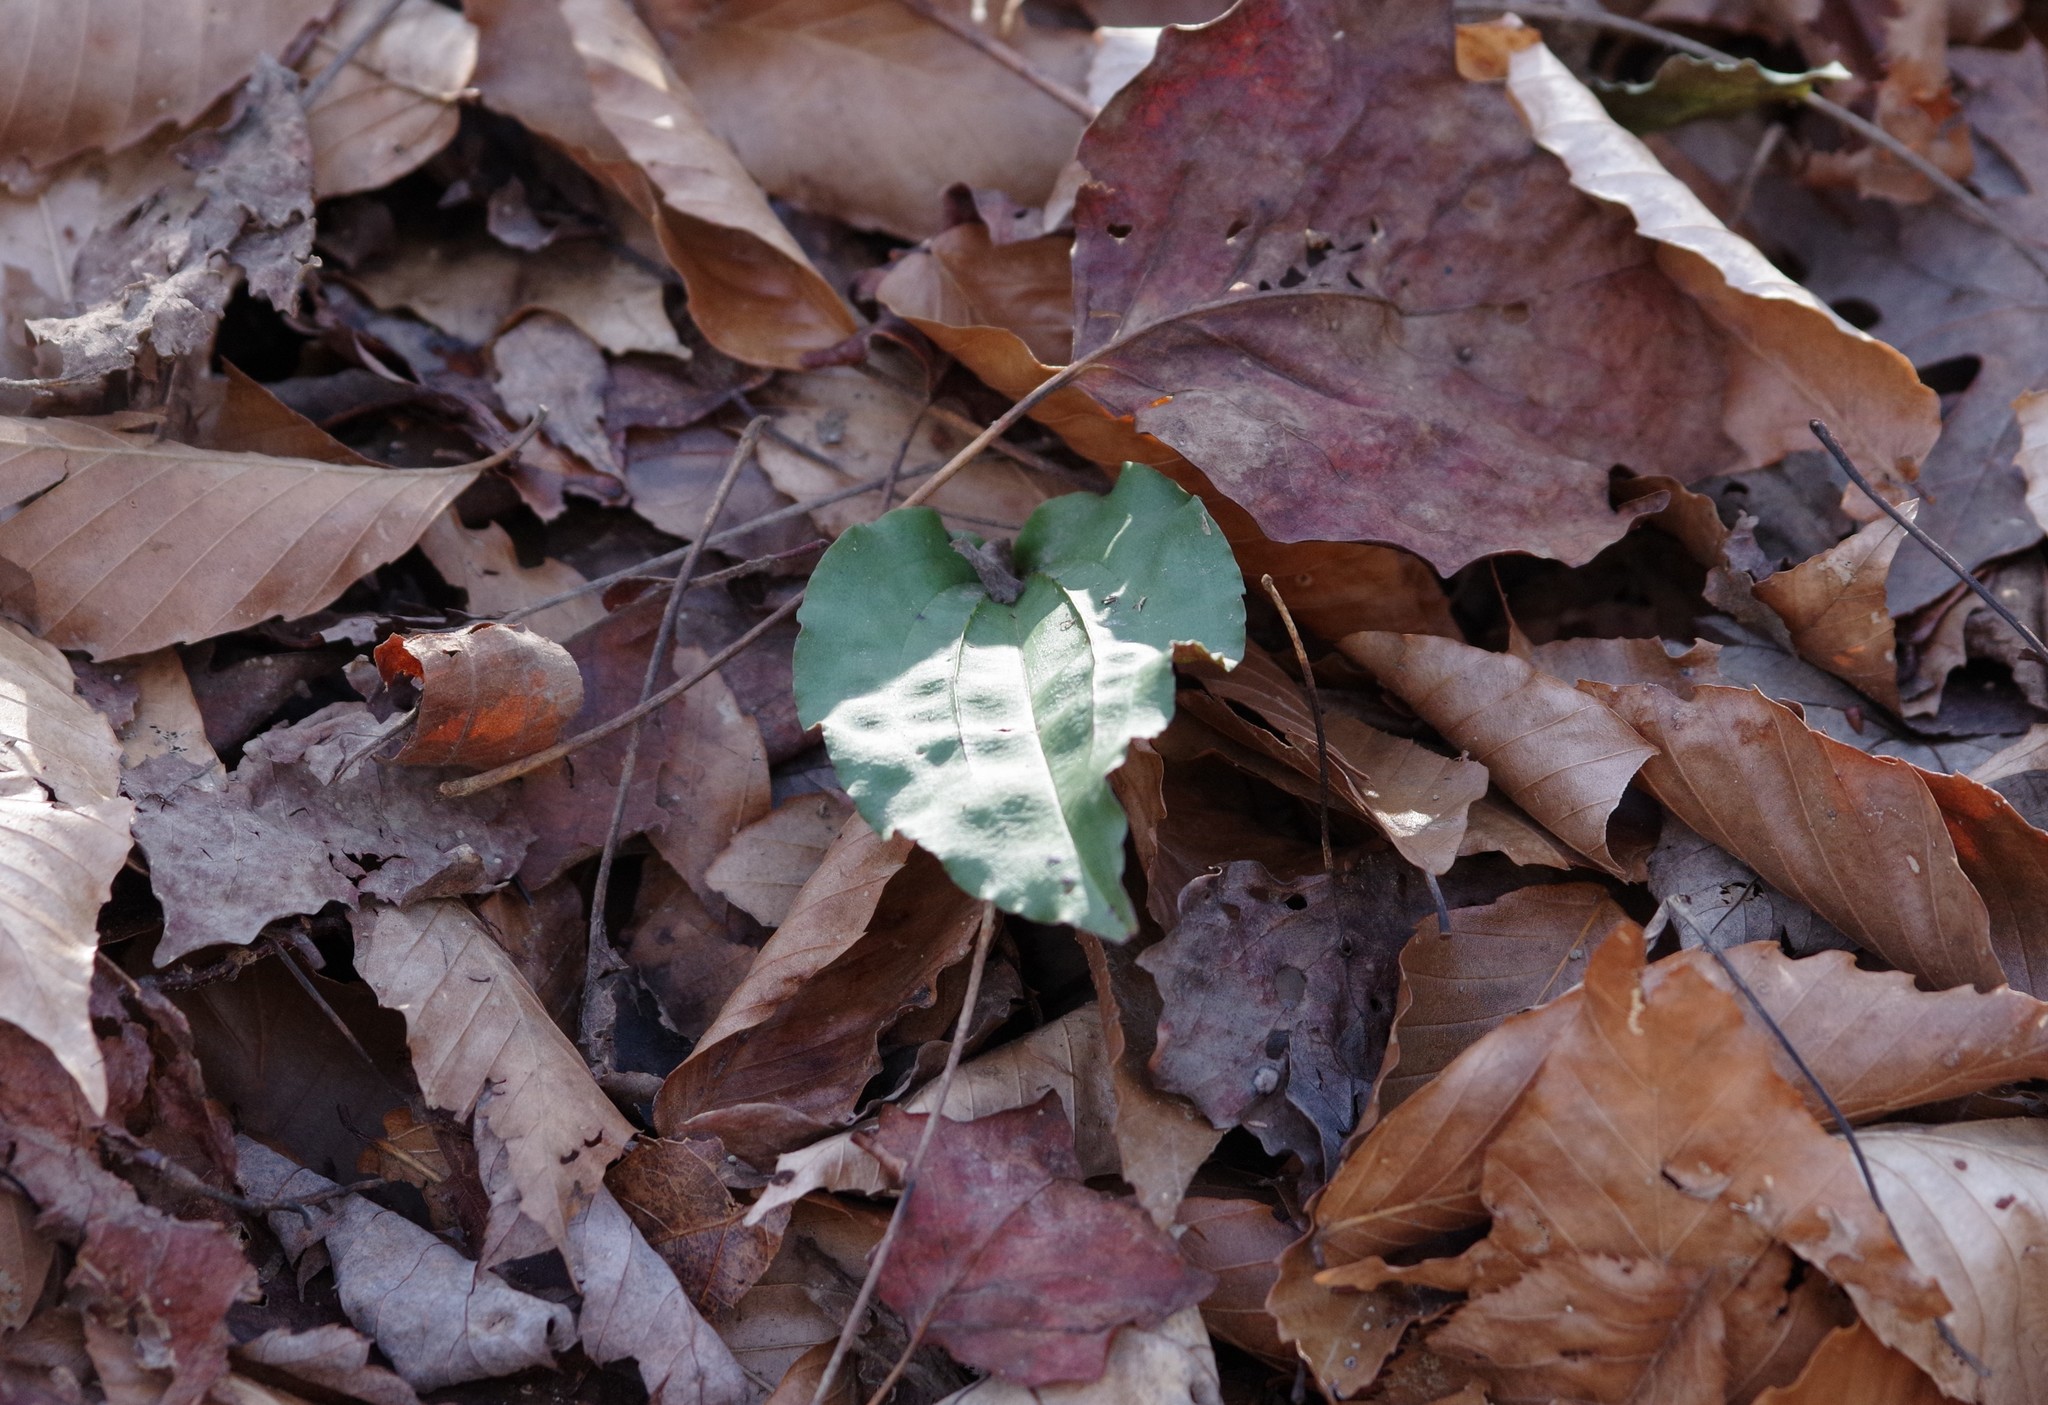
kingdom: Plantae
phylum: Tracheophyta
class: Liliopsida
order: Asparagales
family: Orchidaceae
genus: Tipularia
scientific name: Tipularia discolor
